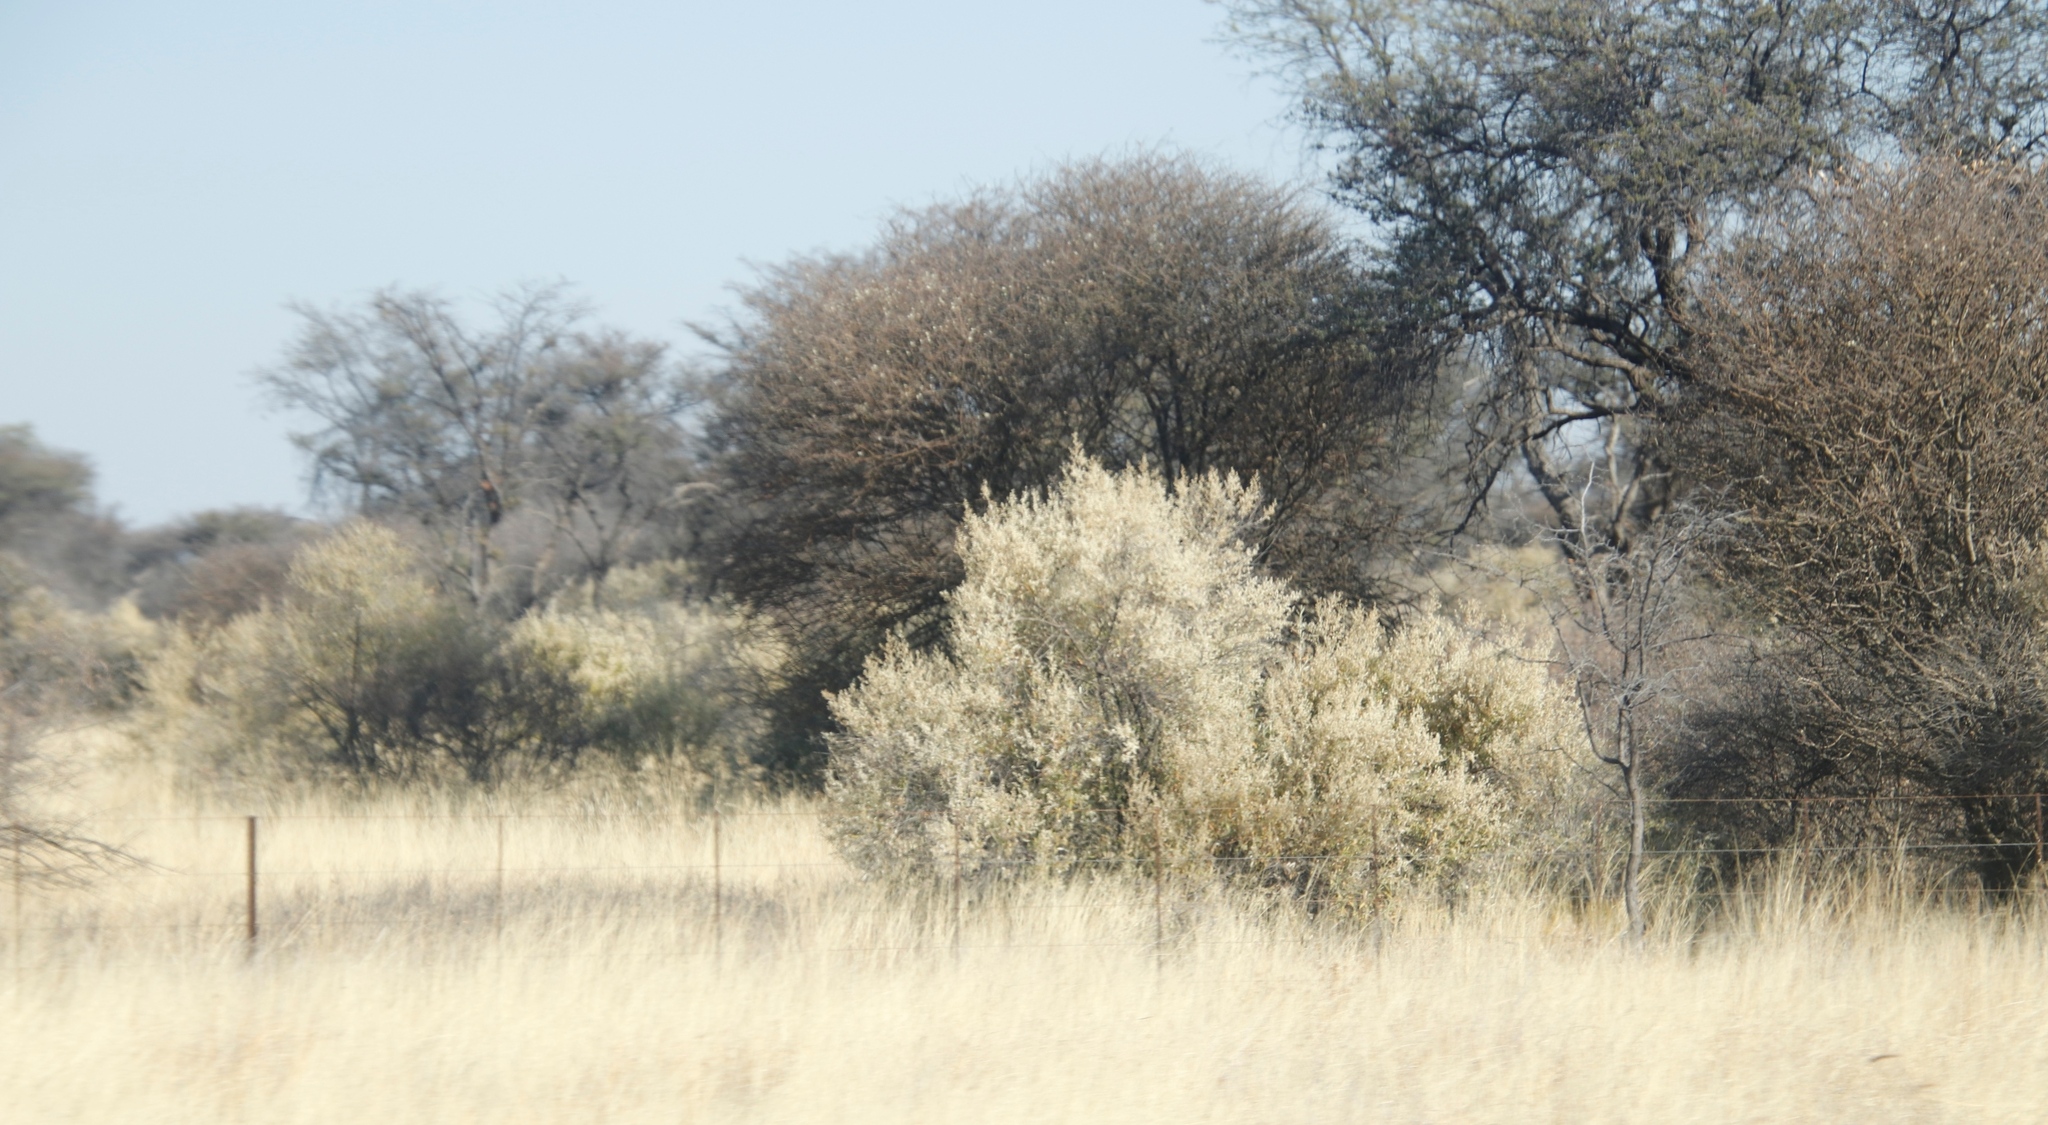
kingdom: Plantae
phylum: Tracheophyta
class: Magnoliopsida
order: Fabales
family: Fabaceae
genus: Senegalia
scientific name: Senegalia mellifera
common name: Hookthorn
